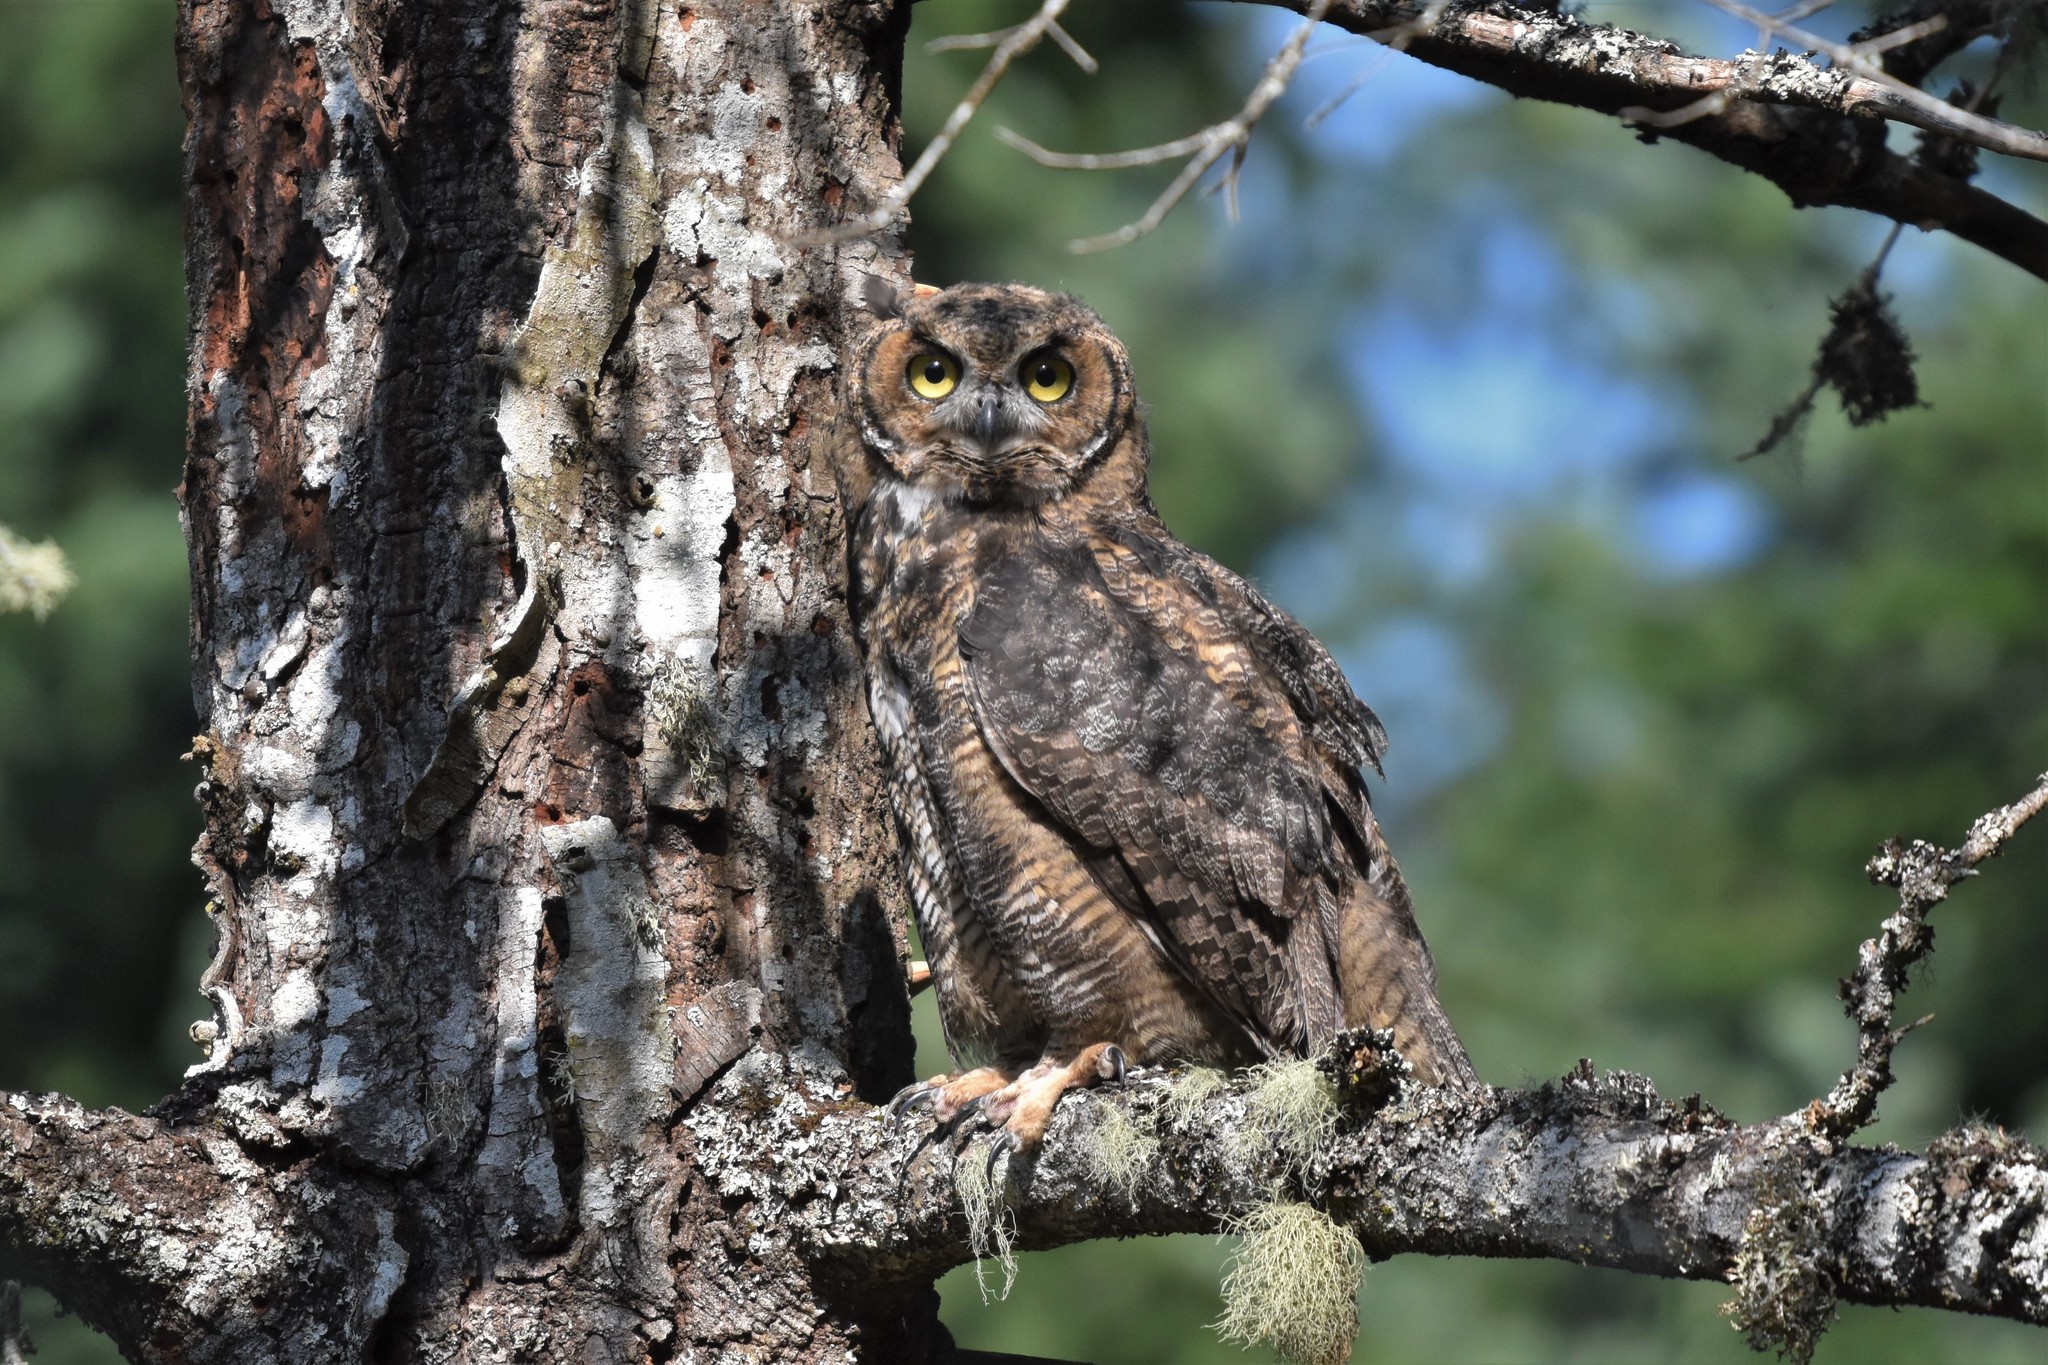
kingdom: Animalia
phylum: Chordata
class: Aves
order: Strigiformes
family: Strigidae
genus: Bubo
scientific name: Bubo virginianus
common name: Great horned owl
